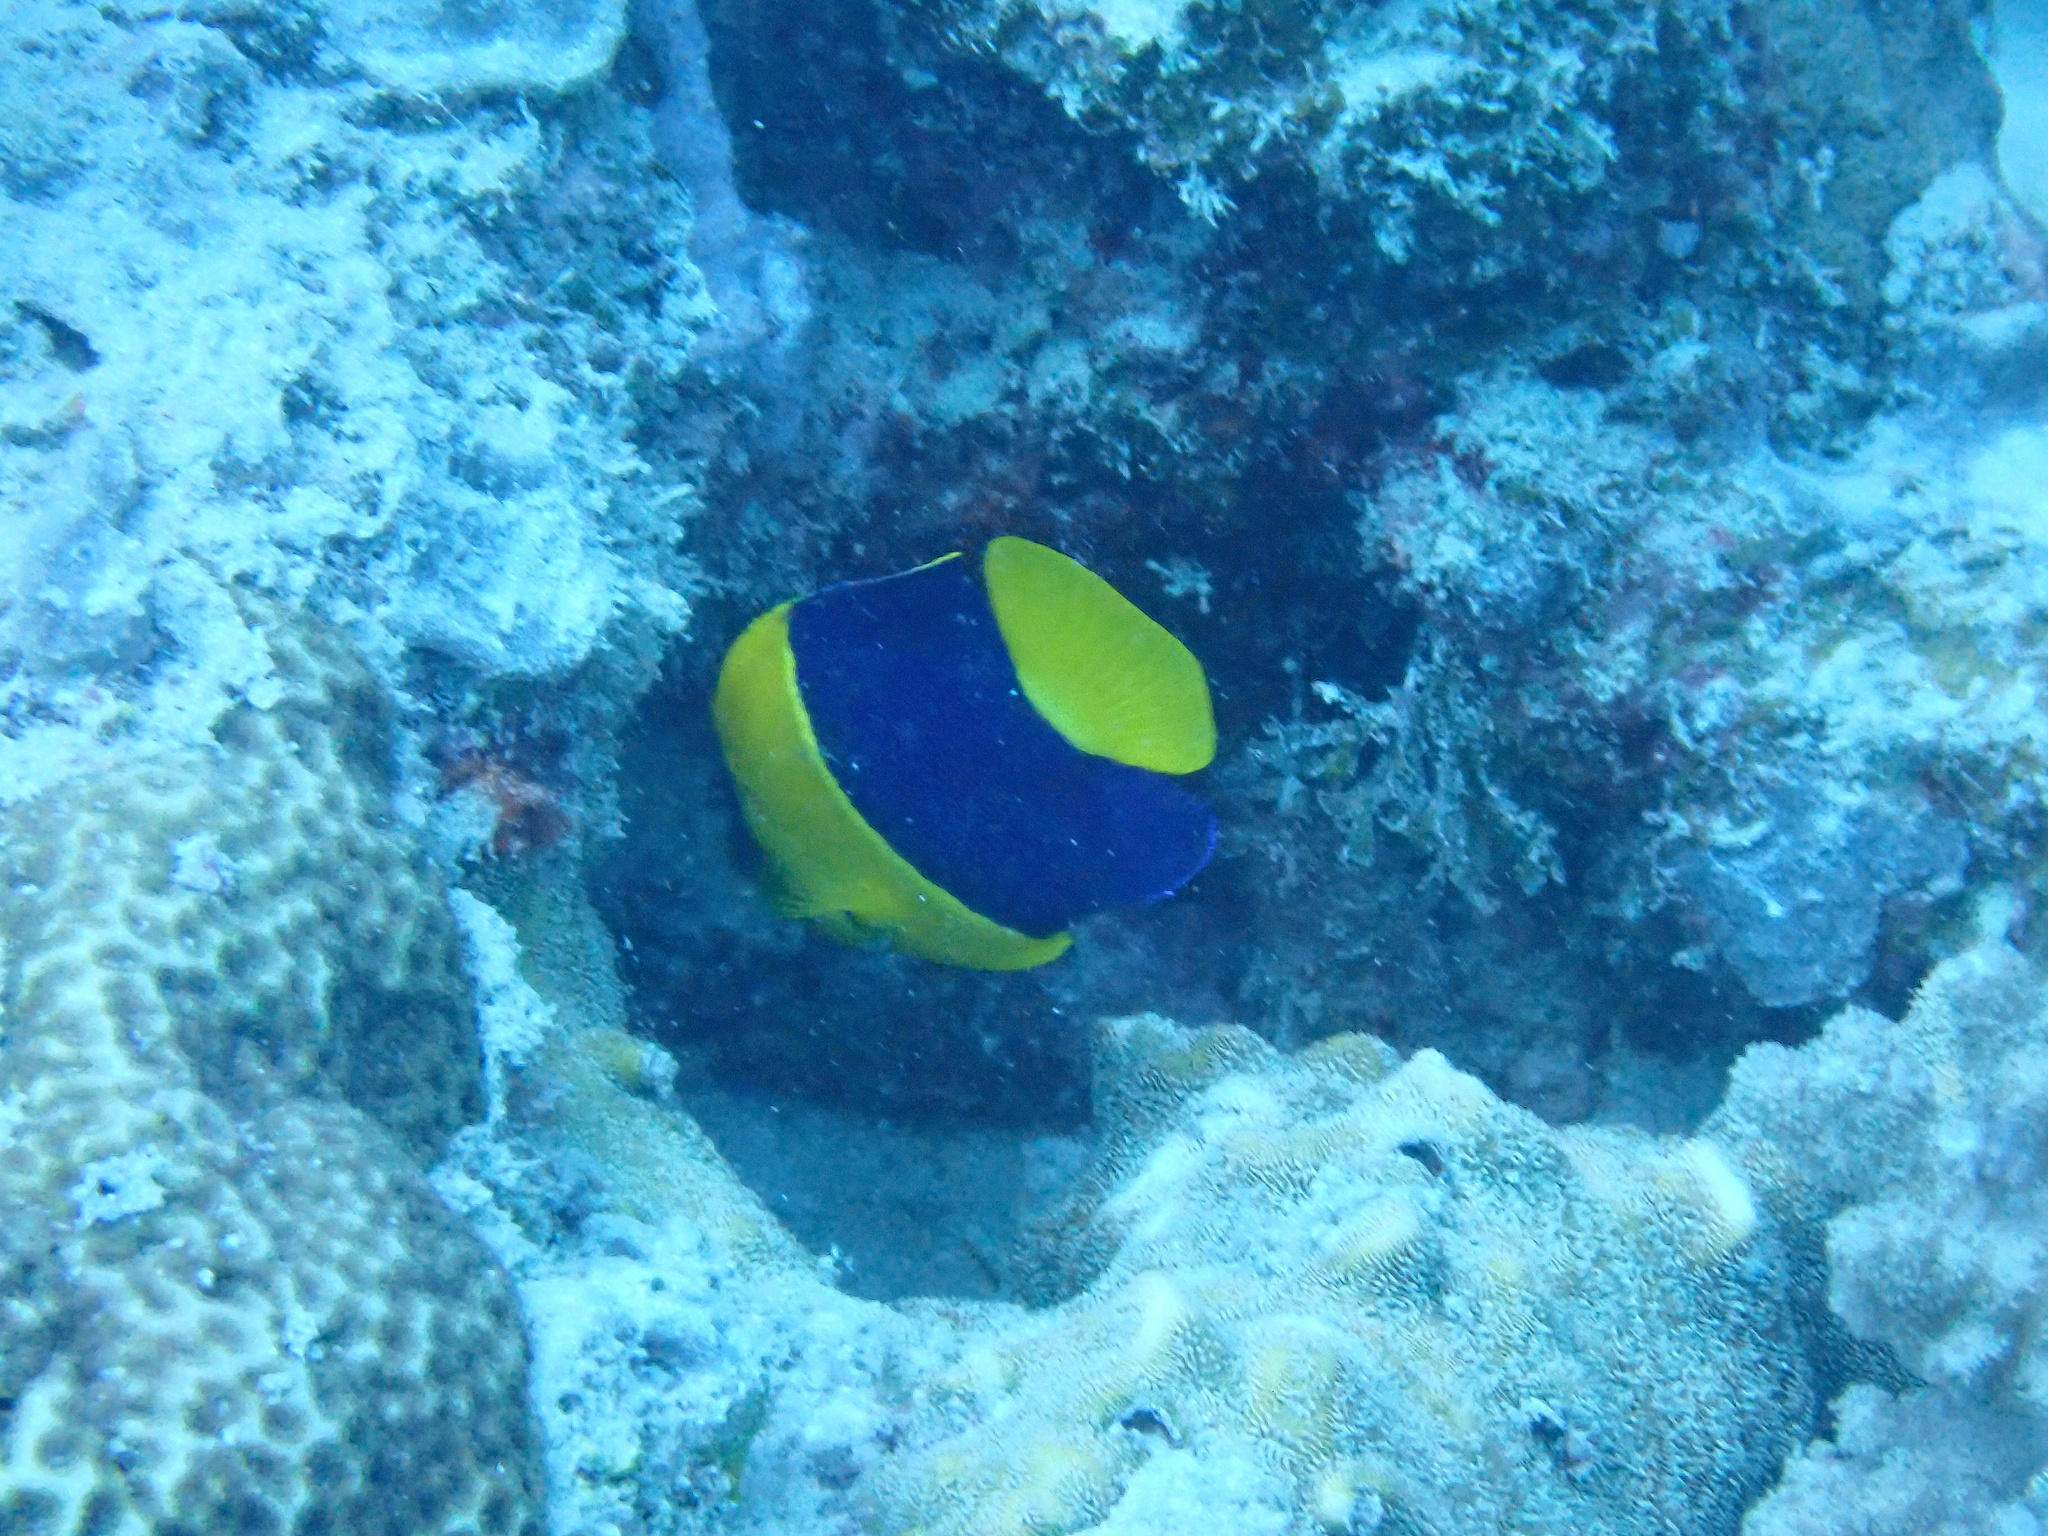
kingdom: Animalia
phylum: Chordata
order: Perciformes
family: Pomacanthidae
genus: Centropyge
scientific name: Centropyge bicolor
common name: Bicolor angelfish
